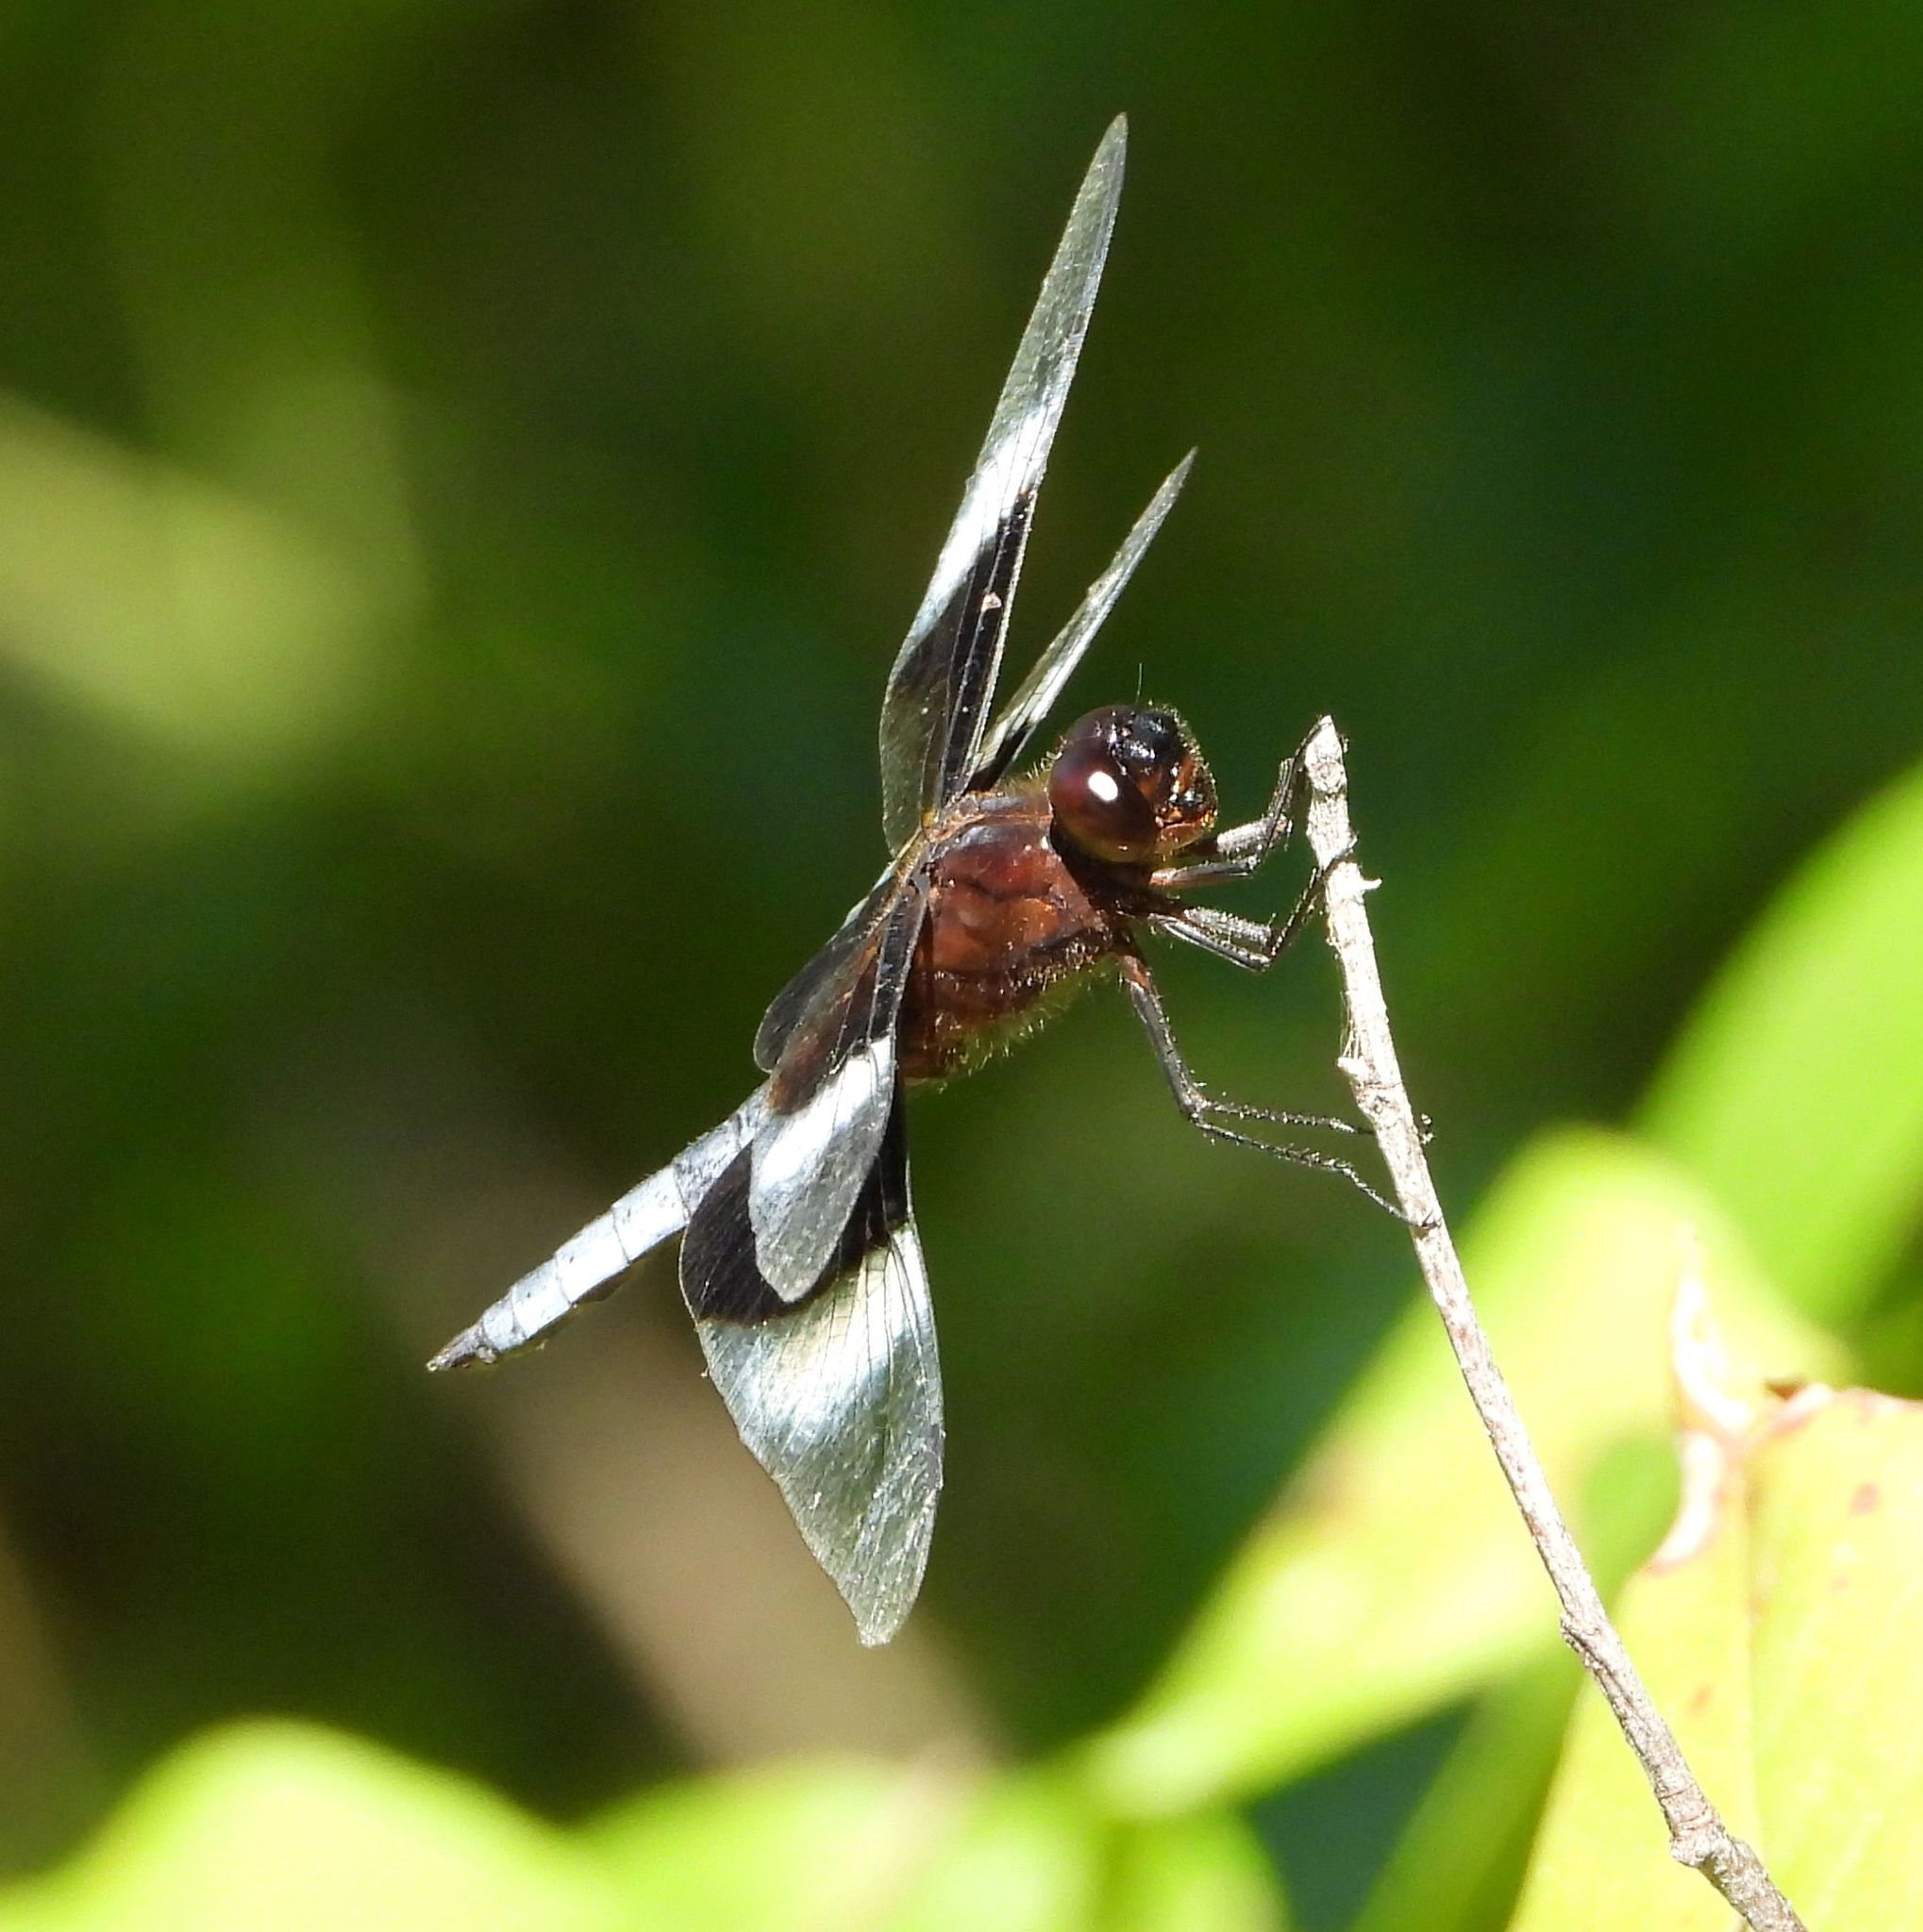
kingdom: Animalia
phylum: Arthropoda
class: Insecta
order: Odonata
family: Libellulidae
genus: Libellula
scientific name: Libellula luctuosa
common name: Widow skimmer
